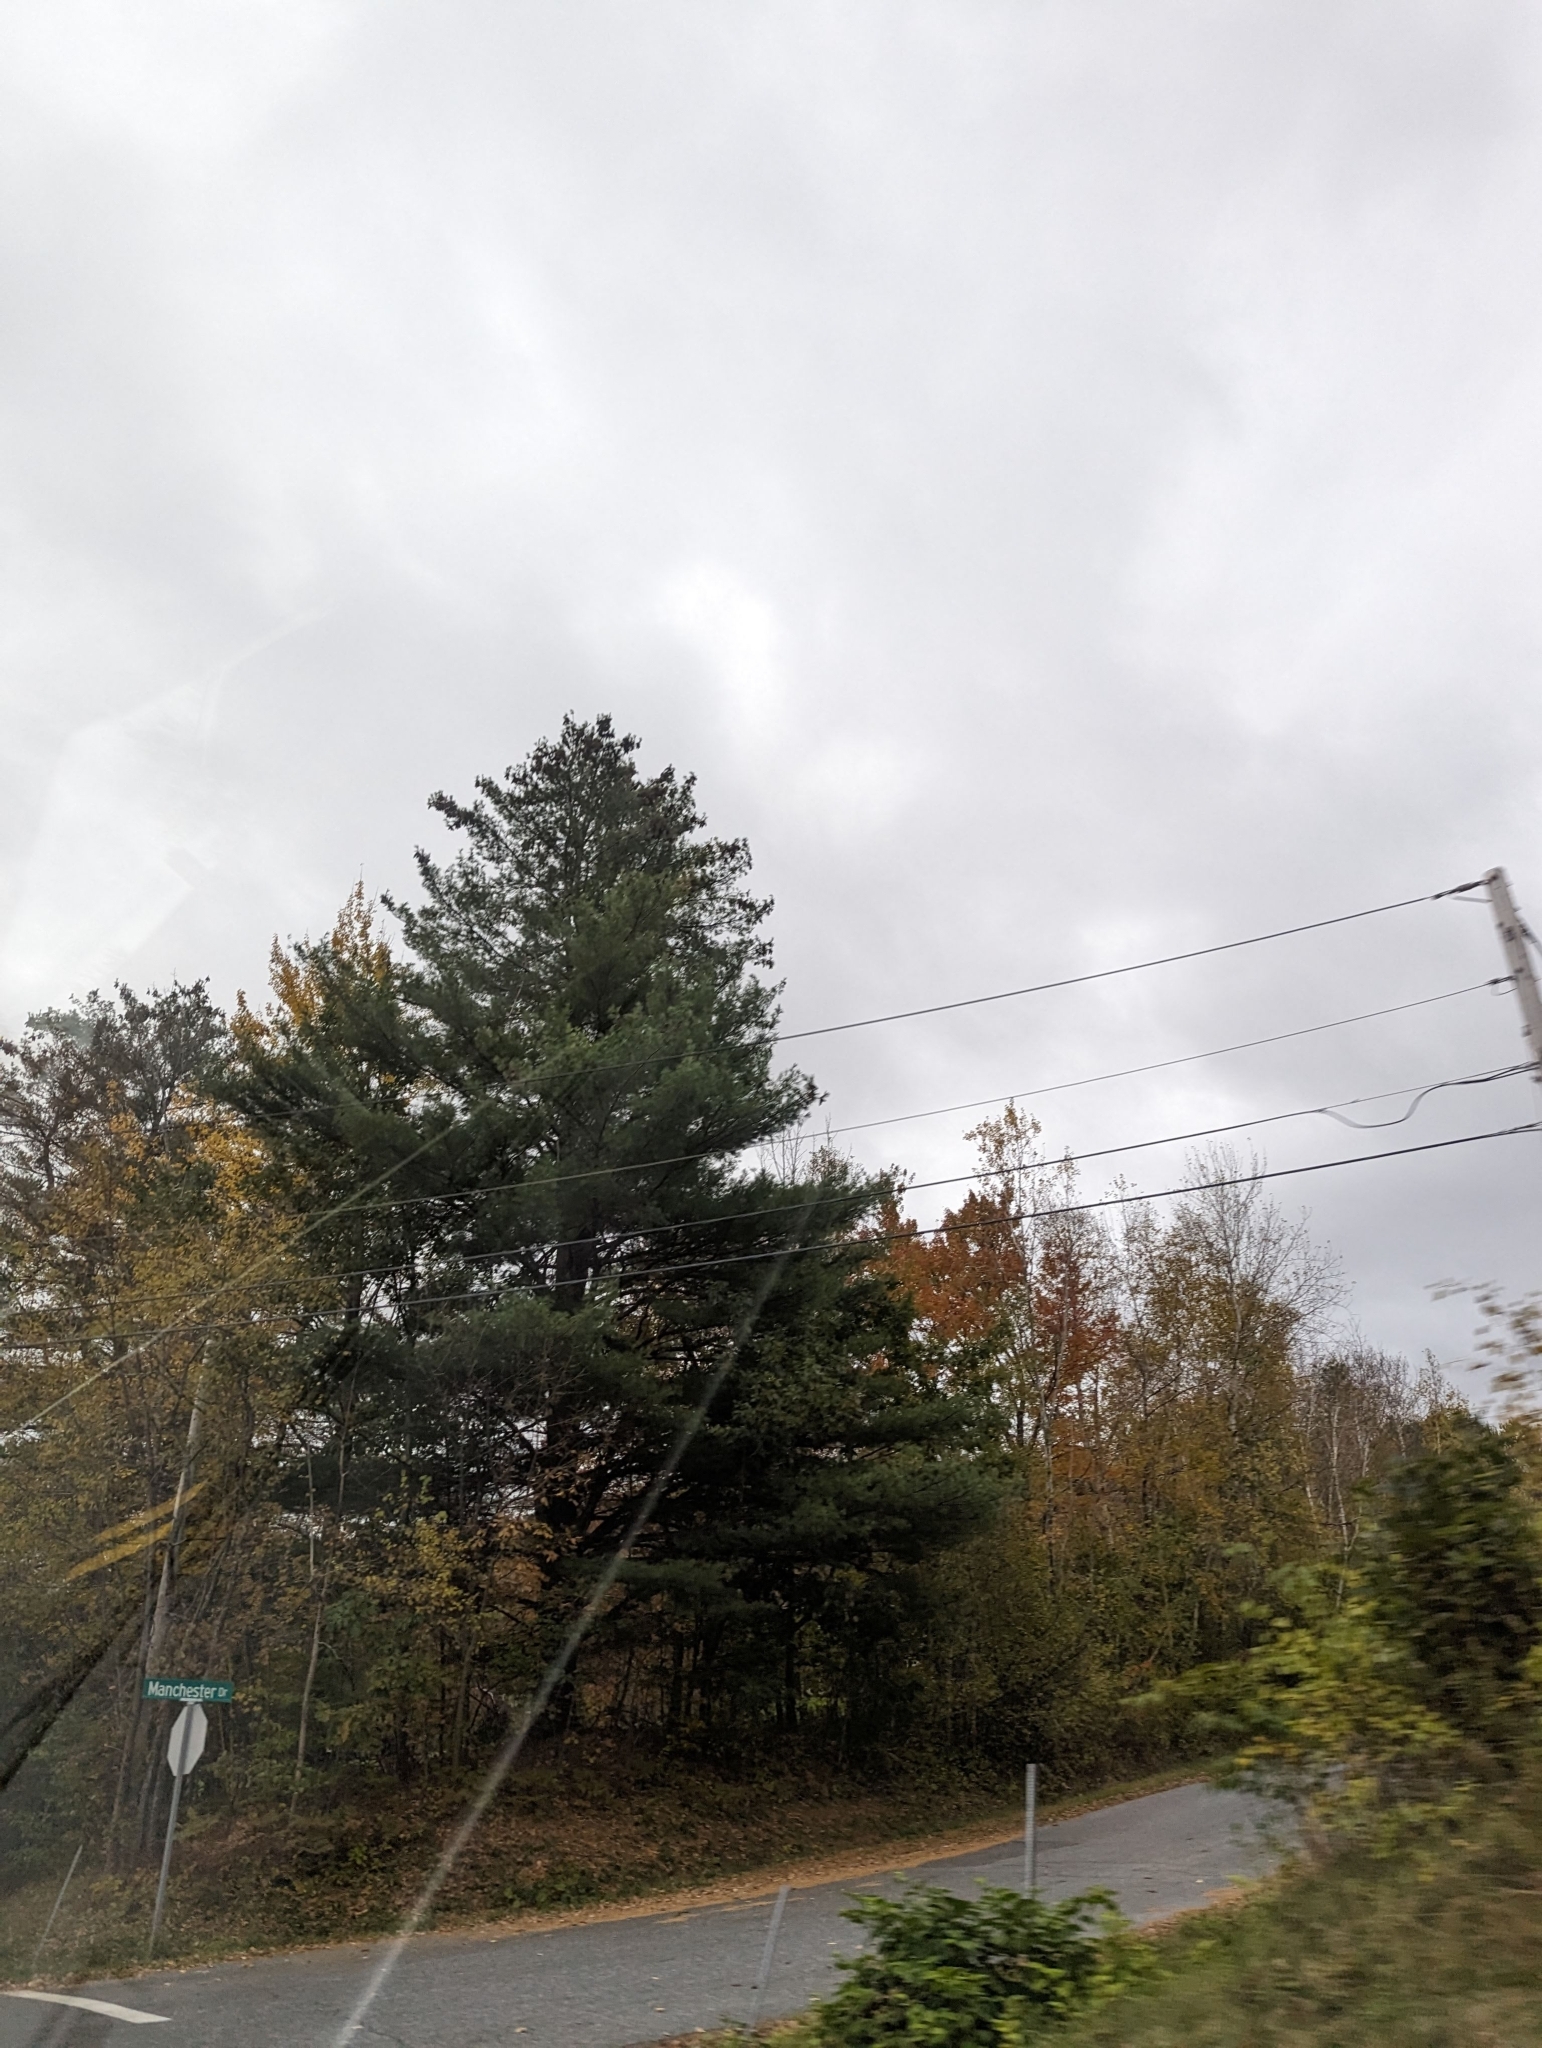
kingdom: Plantae
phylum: Tracheophyta
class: Pinopsida
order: Pinales
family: Pinaceae
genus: Pinus
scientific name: Pinus strobus
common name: Weymouth pine
